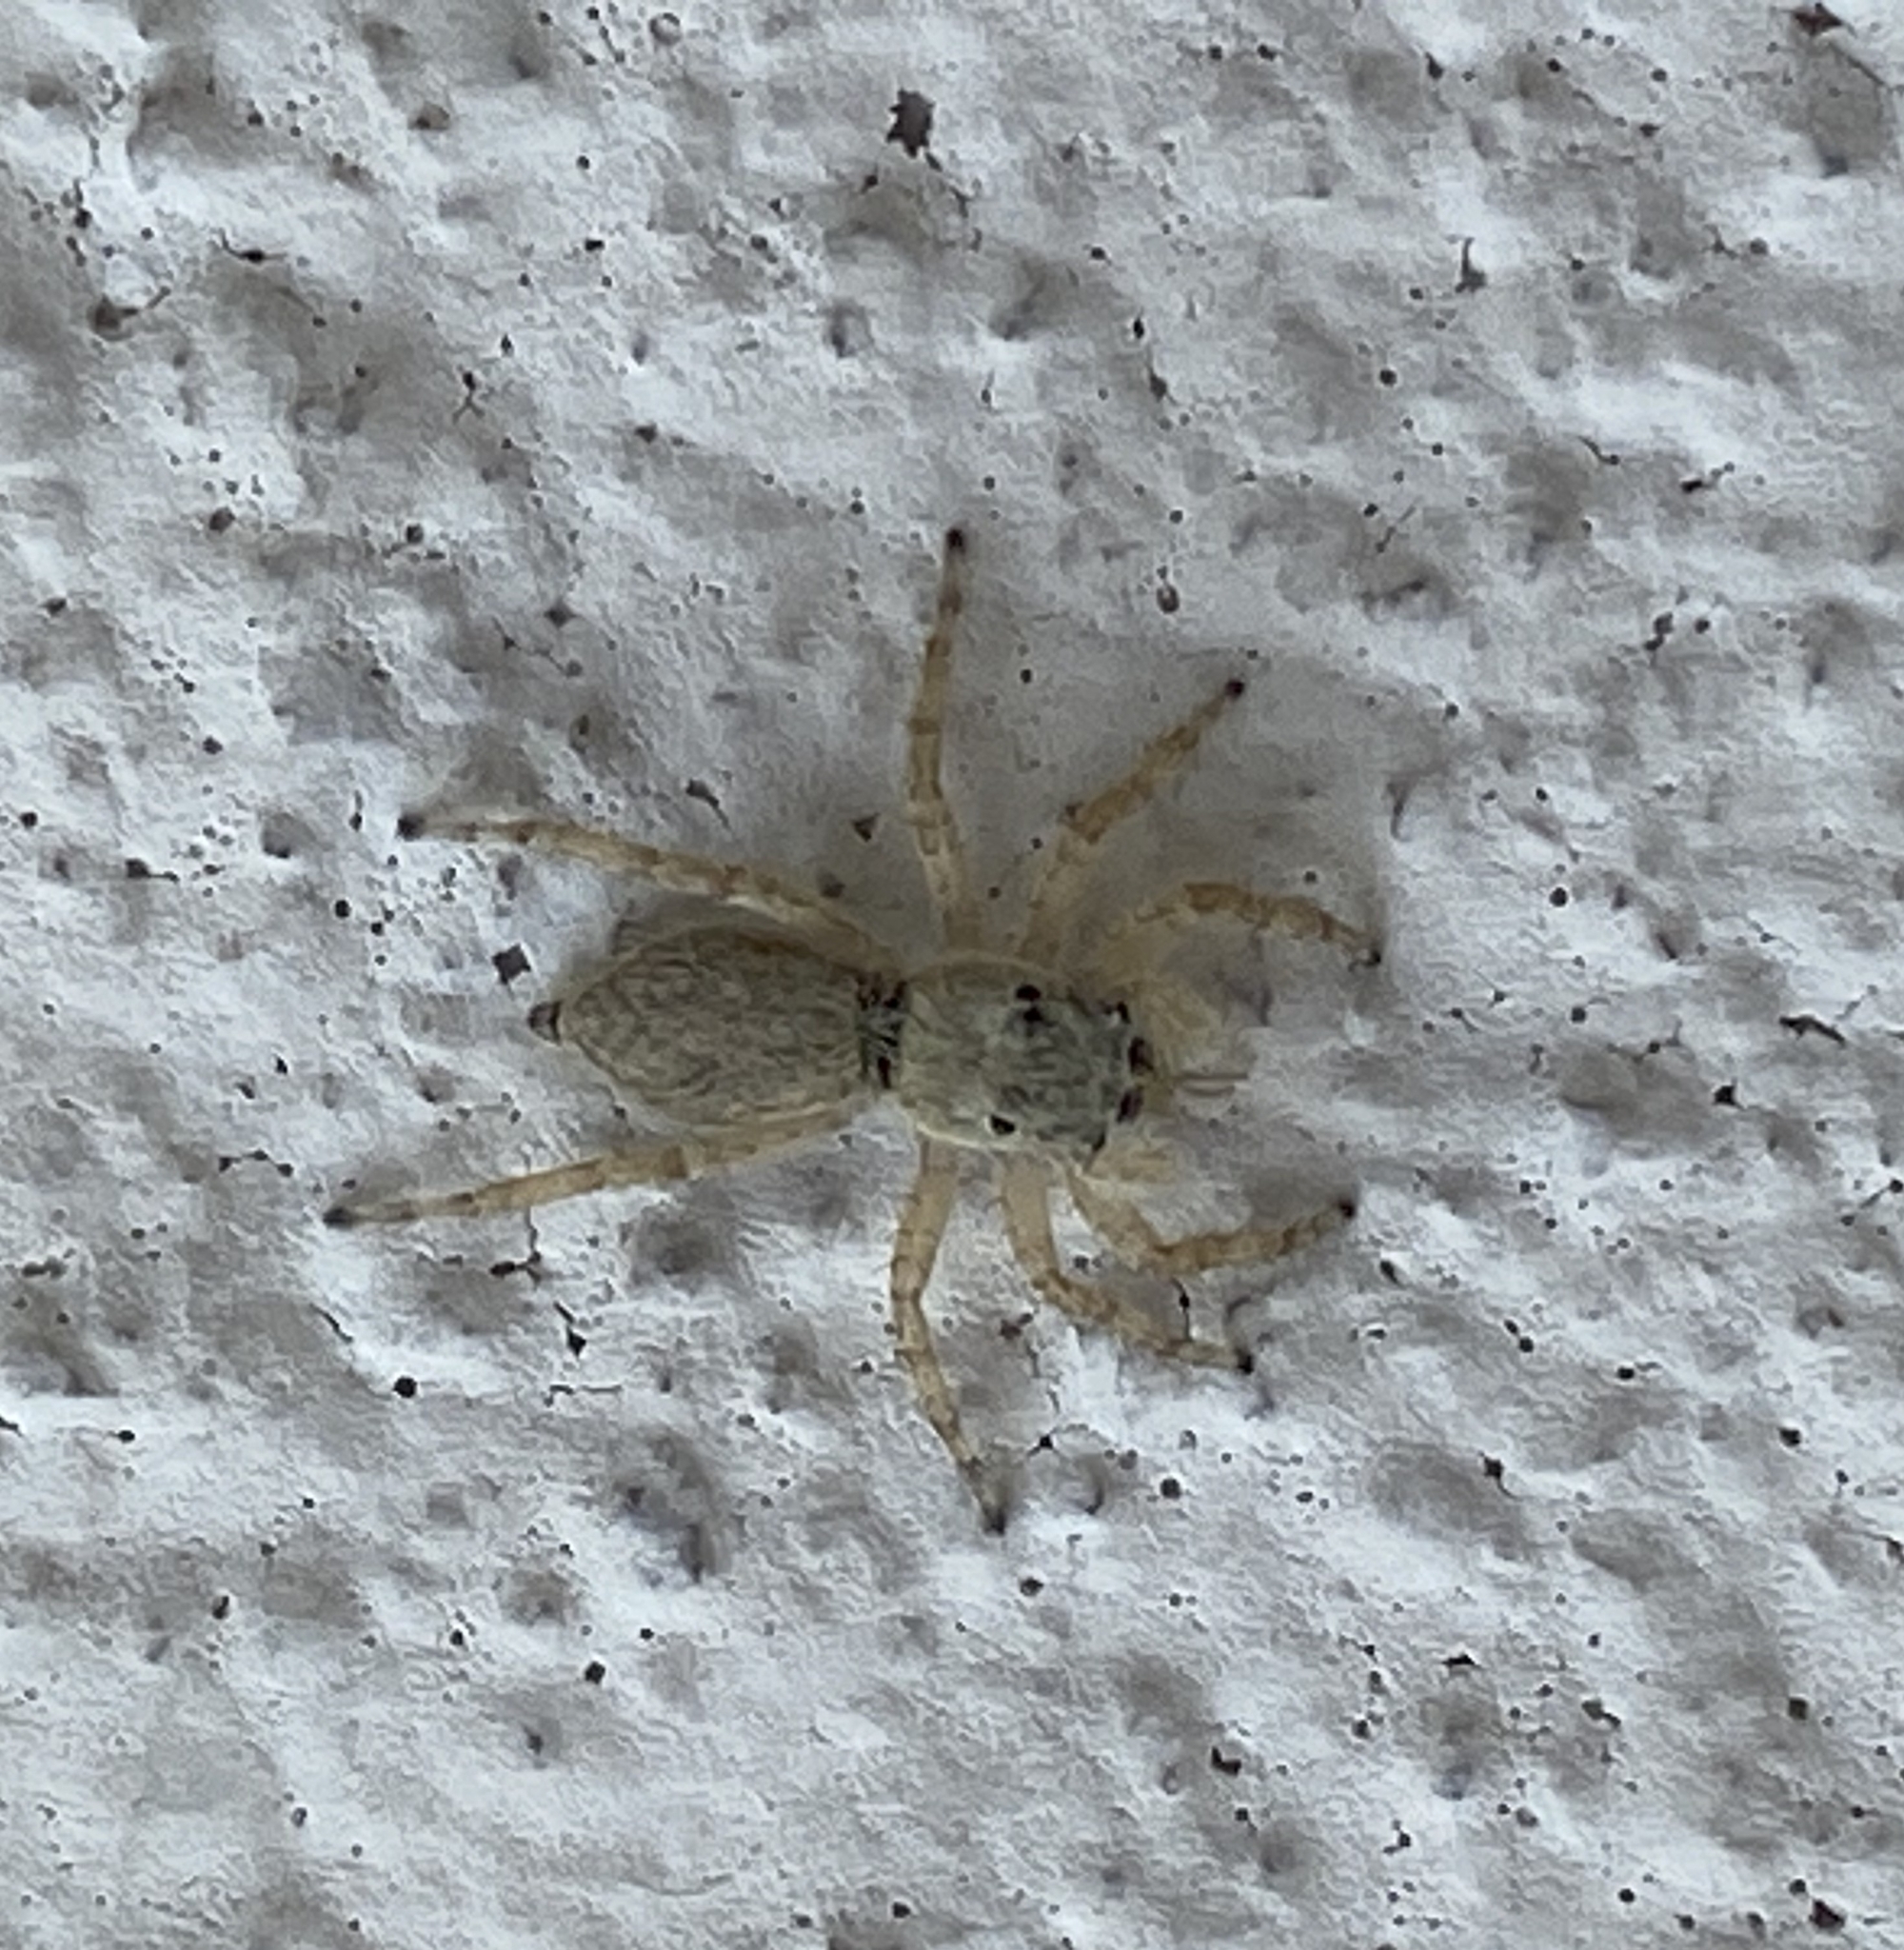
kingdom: Animalia
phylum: Arthropoda
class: Arachnida
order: Araneae
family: Salticidae
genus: Menemerus
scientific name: Menemerus bivittatus
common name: Gray wall jumper
